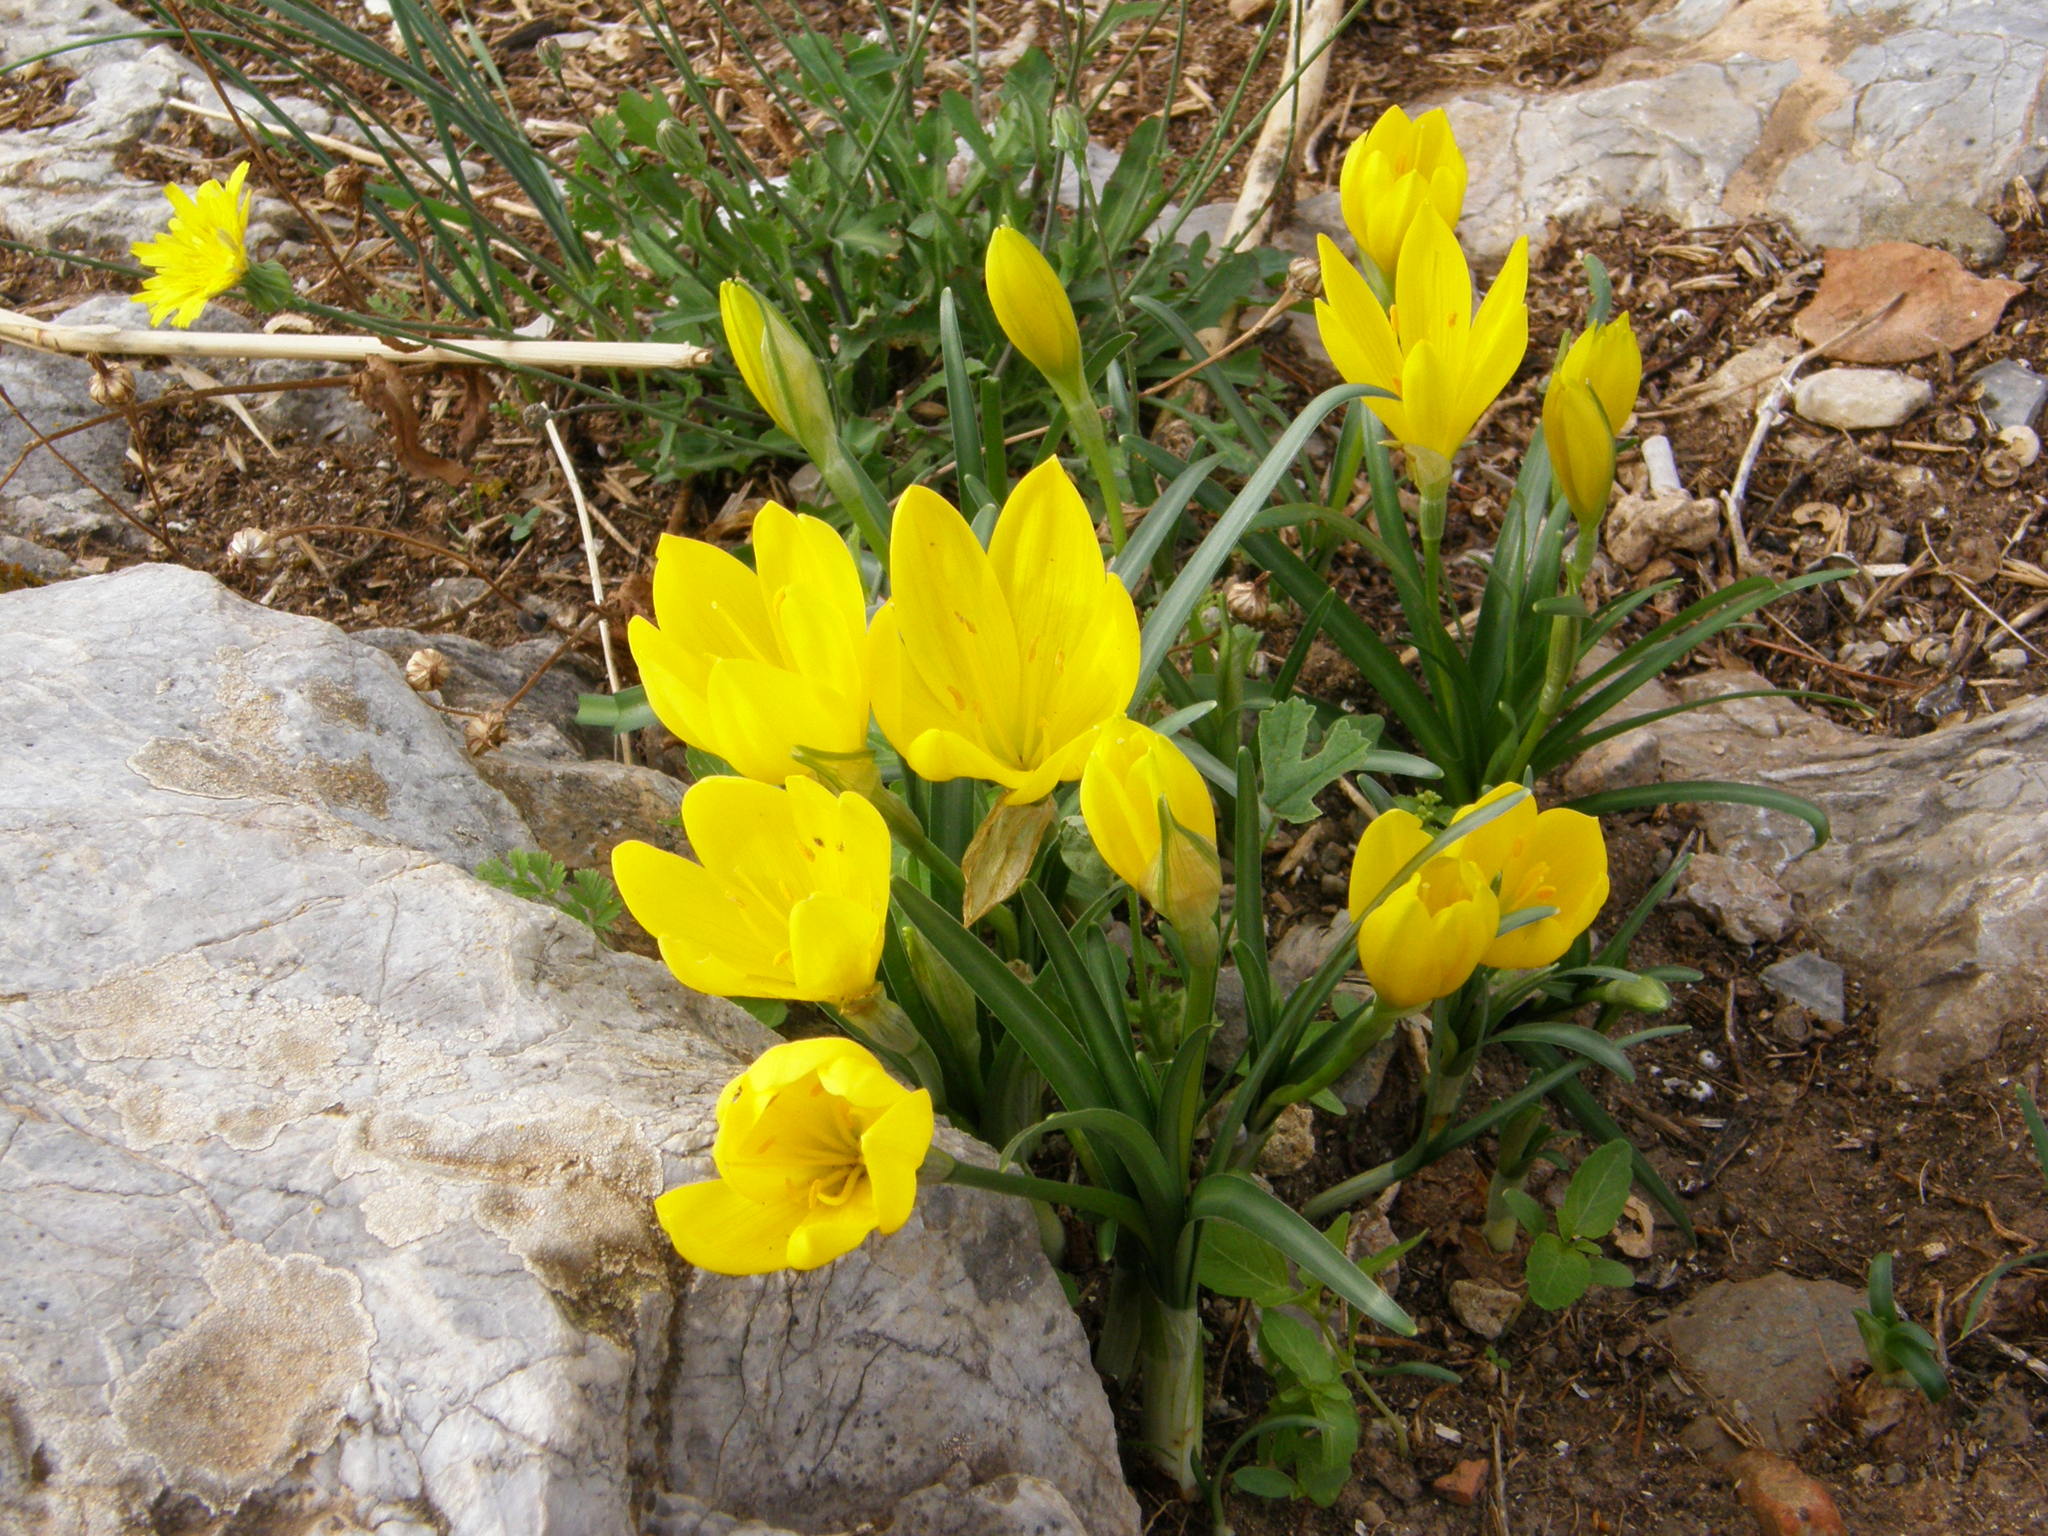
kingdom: Plantae
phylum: Tracheophyta
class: Liliopsida
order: Asparagales
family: Amaryllidaceae
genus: Sternbergia
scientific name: Sternbergia lutea
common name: Winter daffodil
